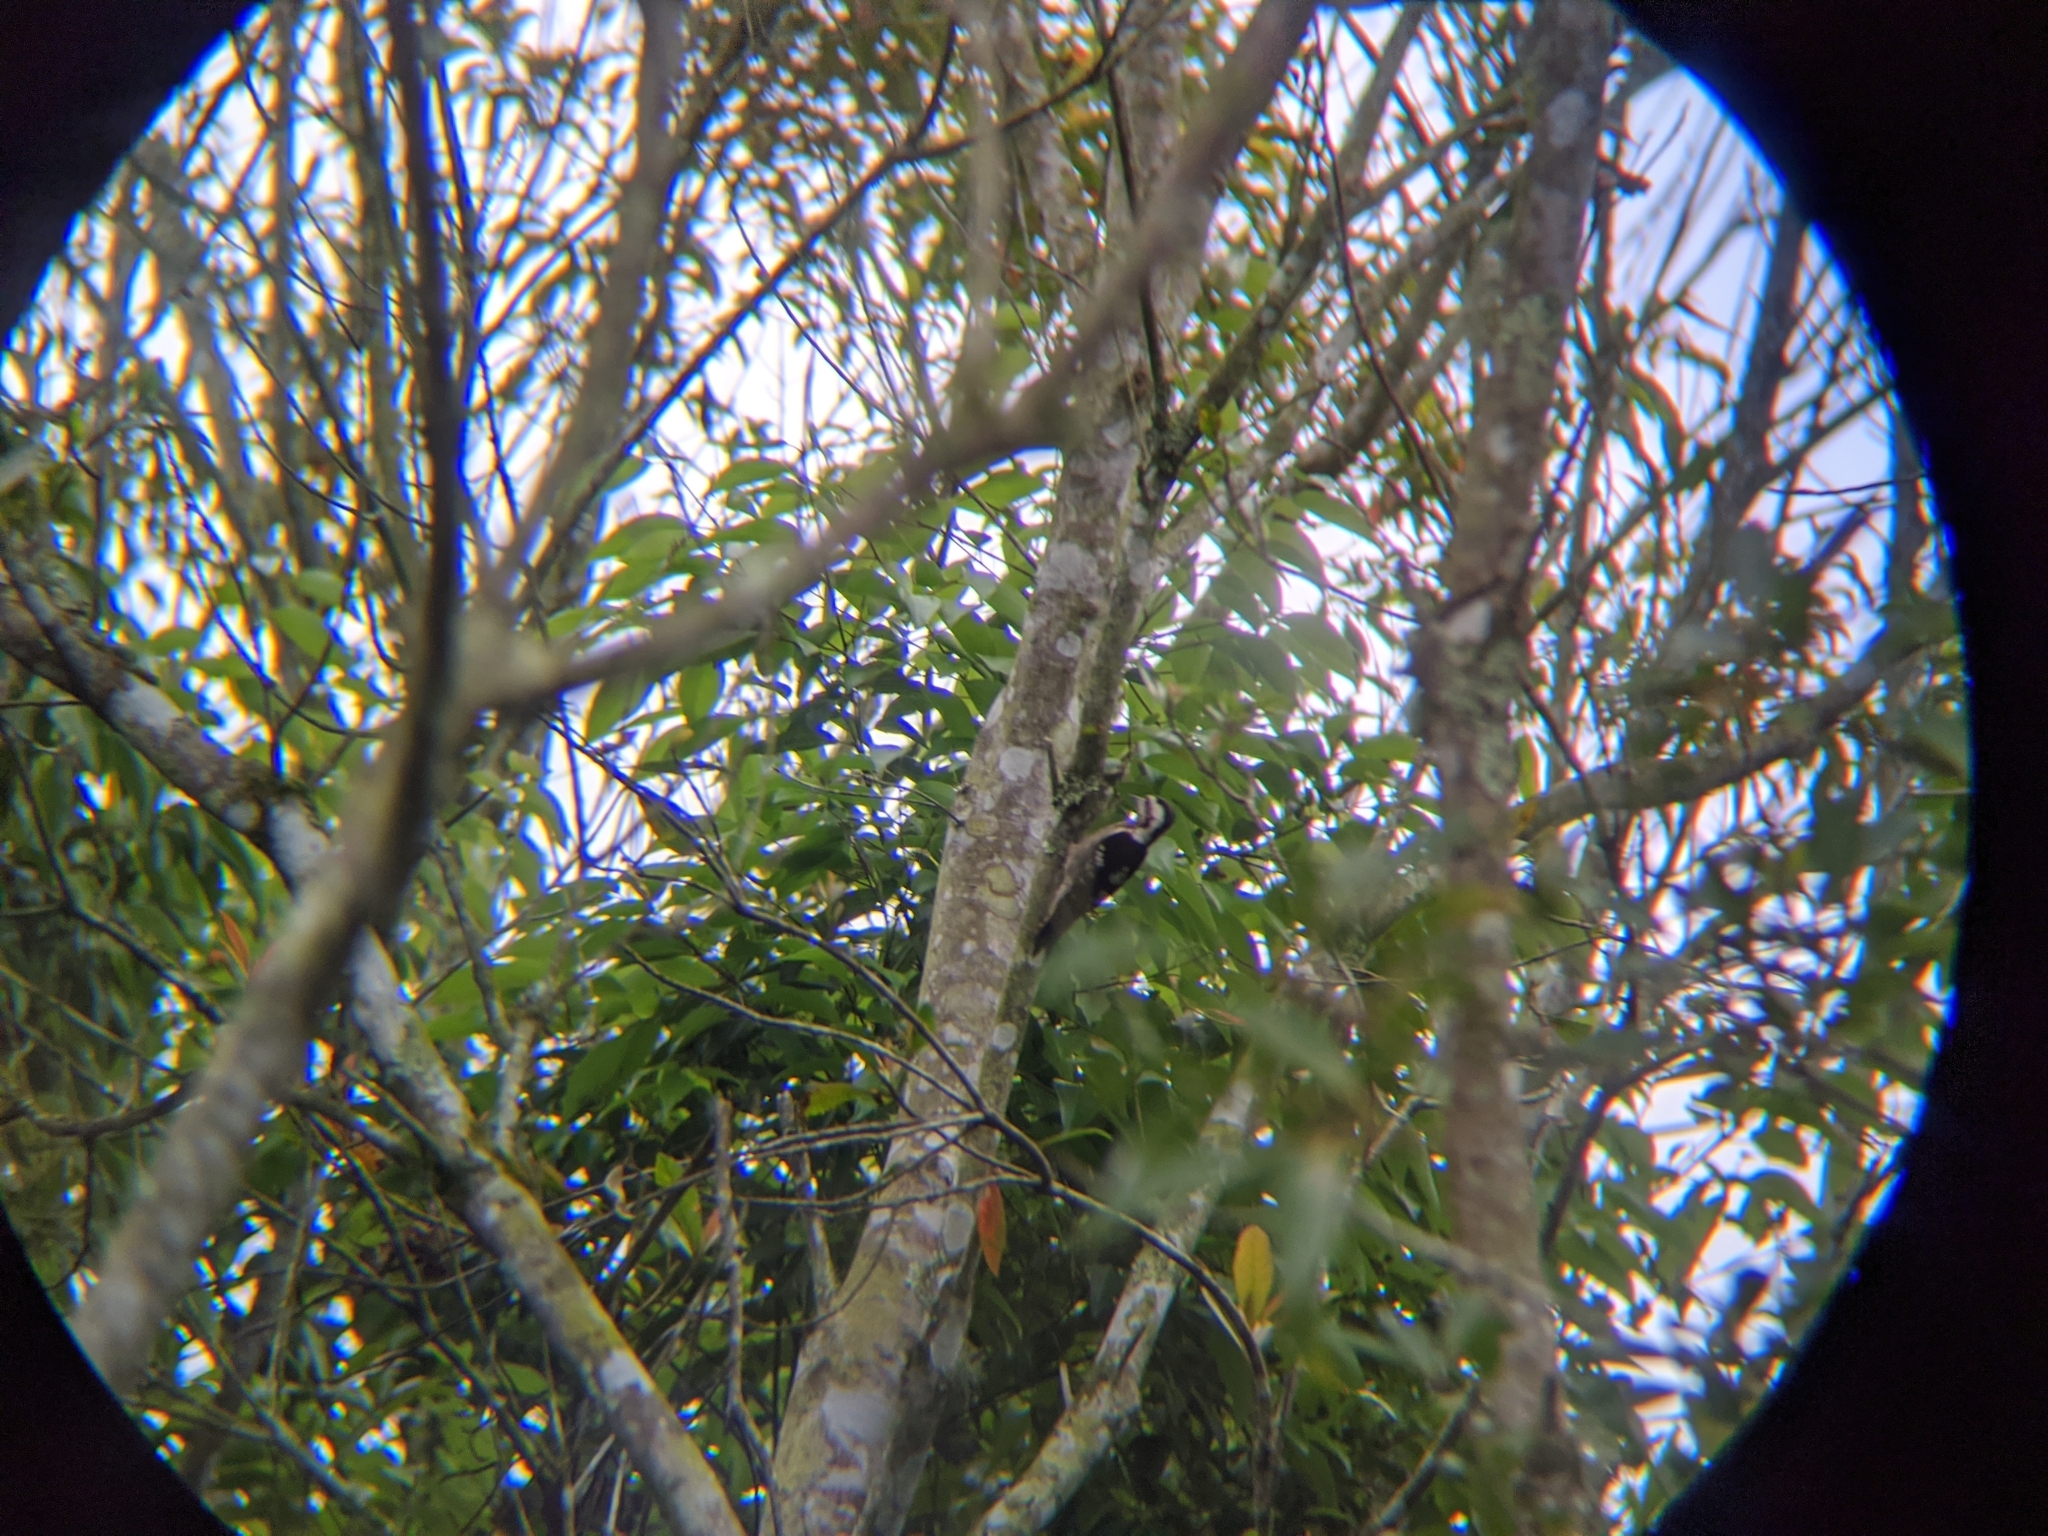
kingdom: Animalia
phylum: Chordata
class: Aves
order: Piciformes
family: Picidae
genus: Yungipicus
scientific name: Yungipicus canicapillus
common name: Grey-capped pygmy woodpecker
